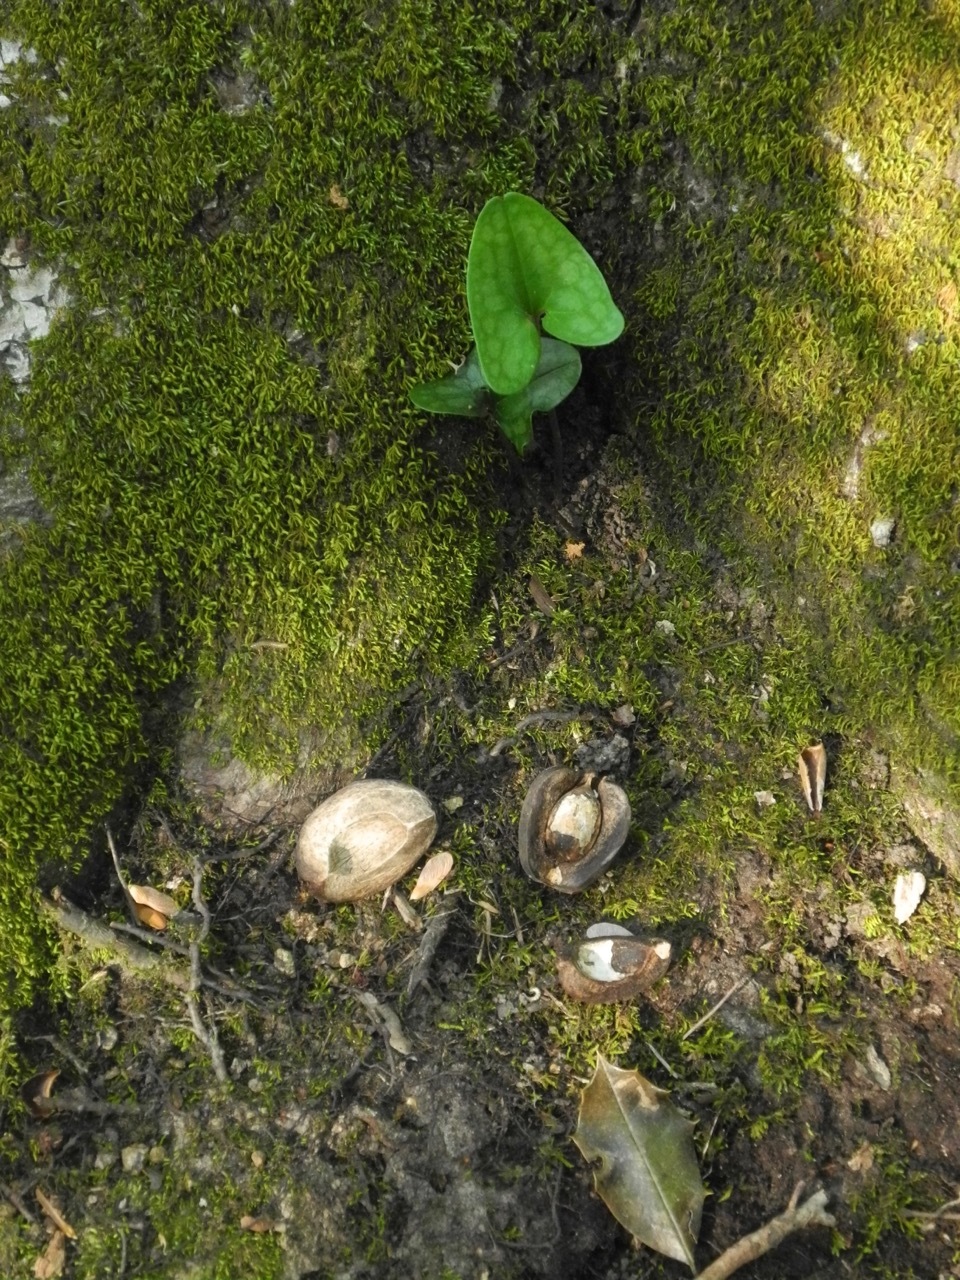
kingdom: Plantae
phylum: Tracheophyta
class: Magnoliopsida
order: Fagales
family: Juglandaceae
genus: Carya
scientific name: Carya ovata
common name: Shagbark hickory
